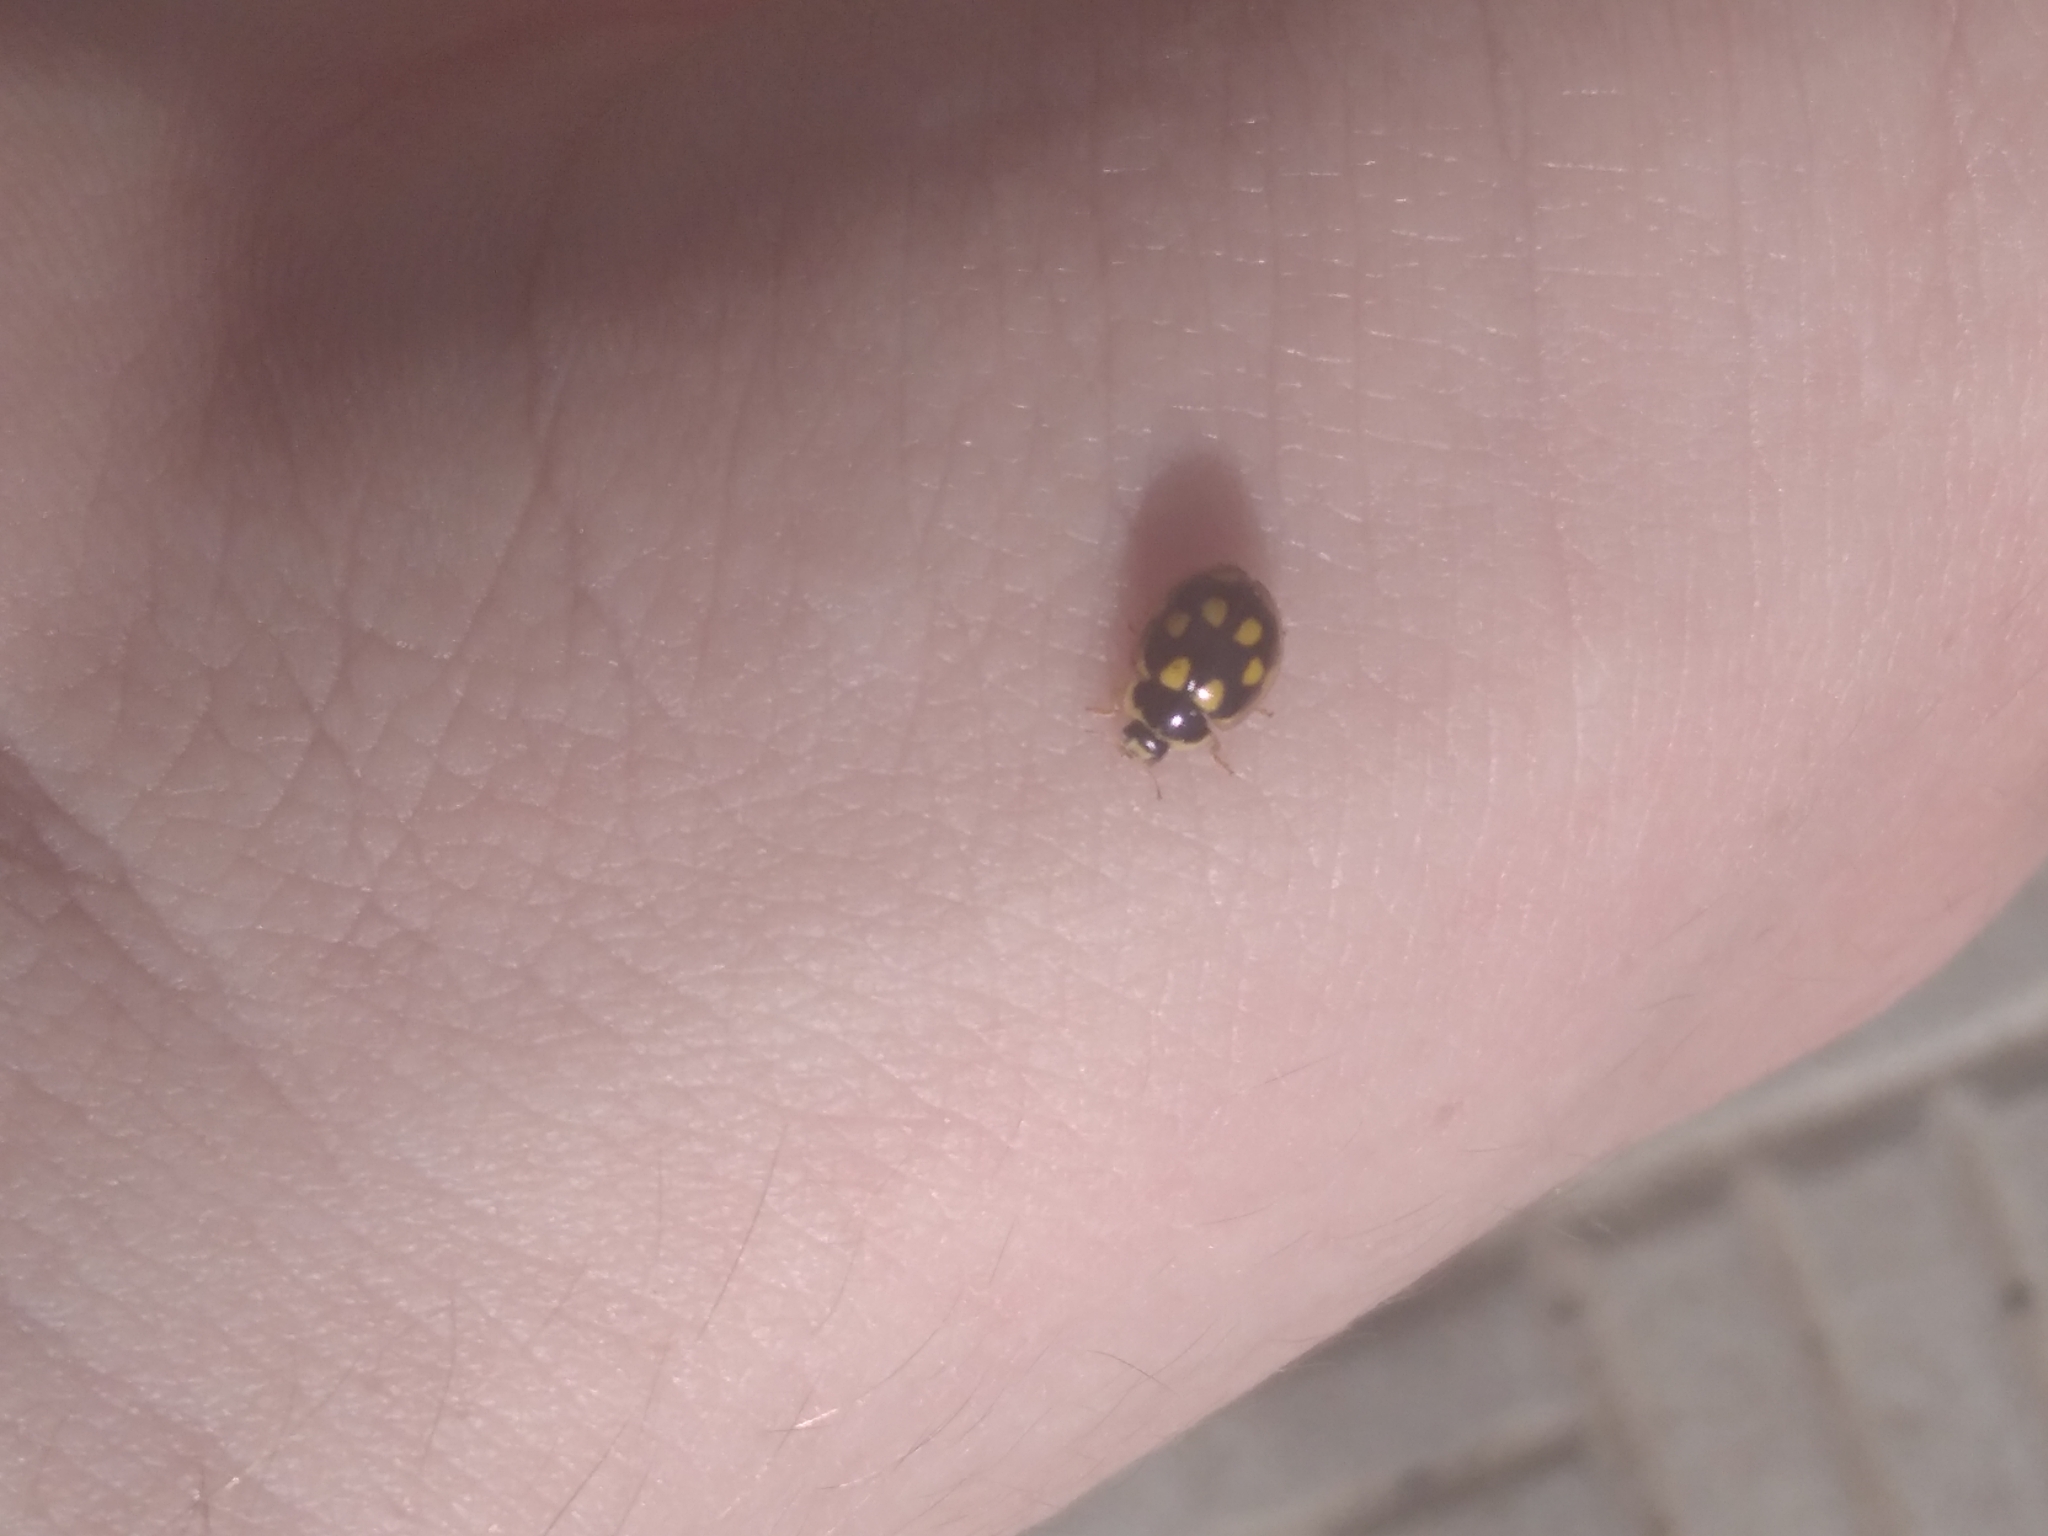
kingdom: Animalia
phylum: Arthropoda
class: Insecta
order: Coleoptera
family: Coccinellidae
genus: Propylaea
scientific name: Propylaea quatuordecimpunctata
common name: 14-spotted ladybird beetle
